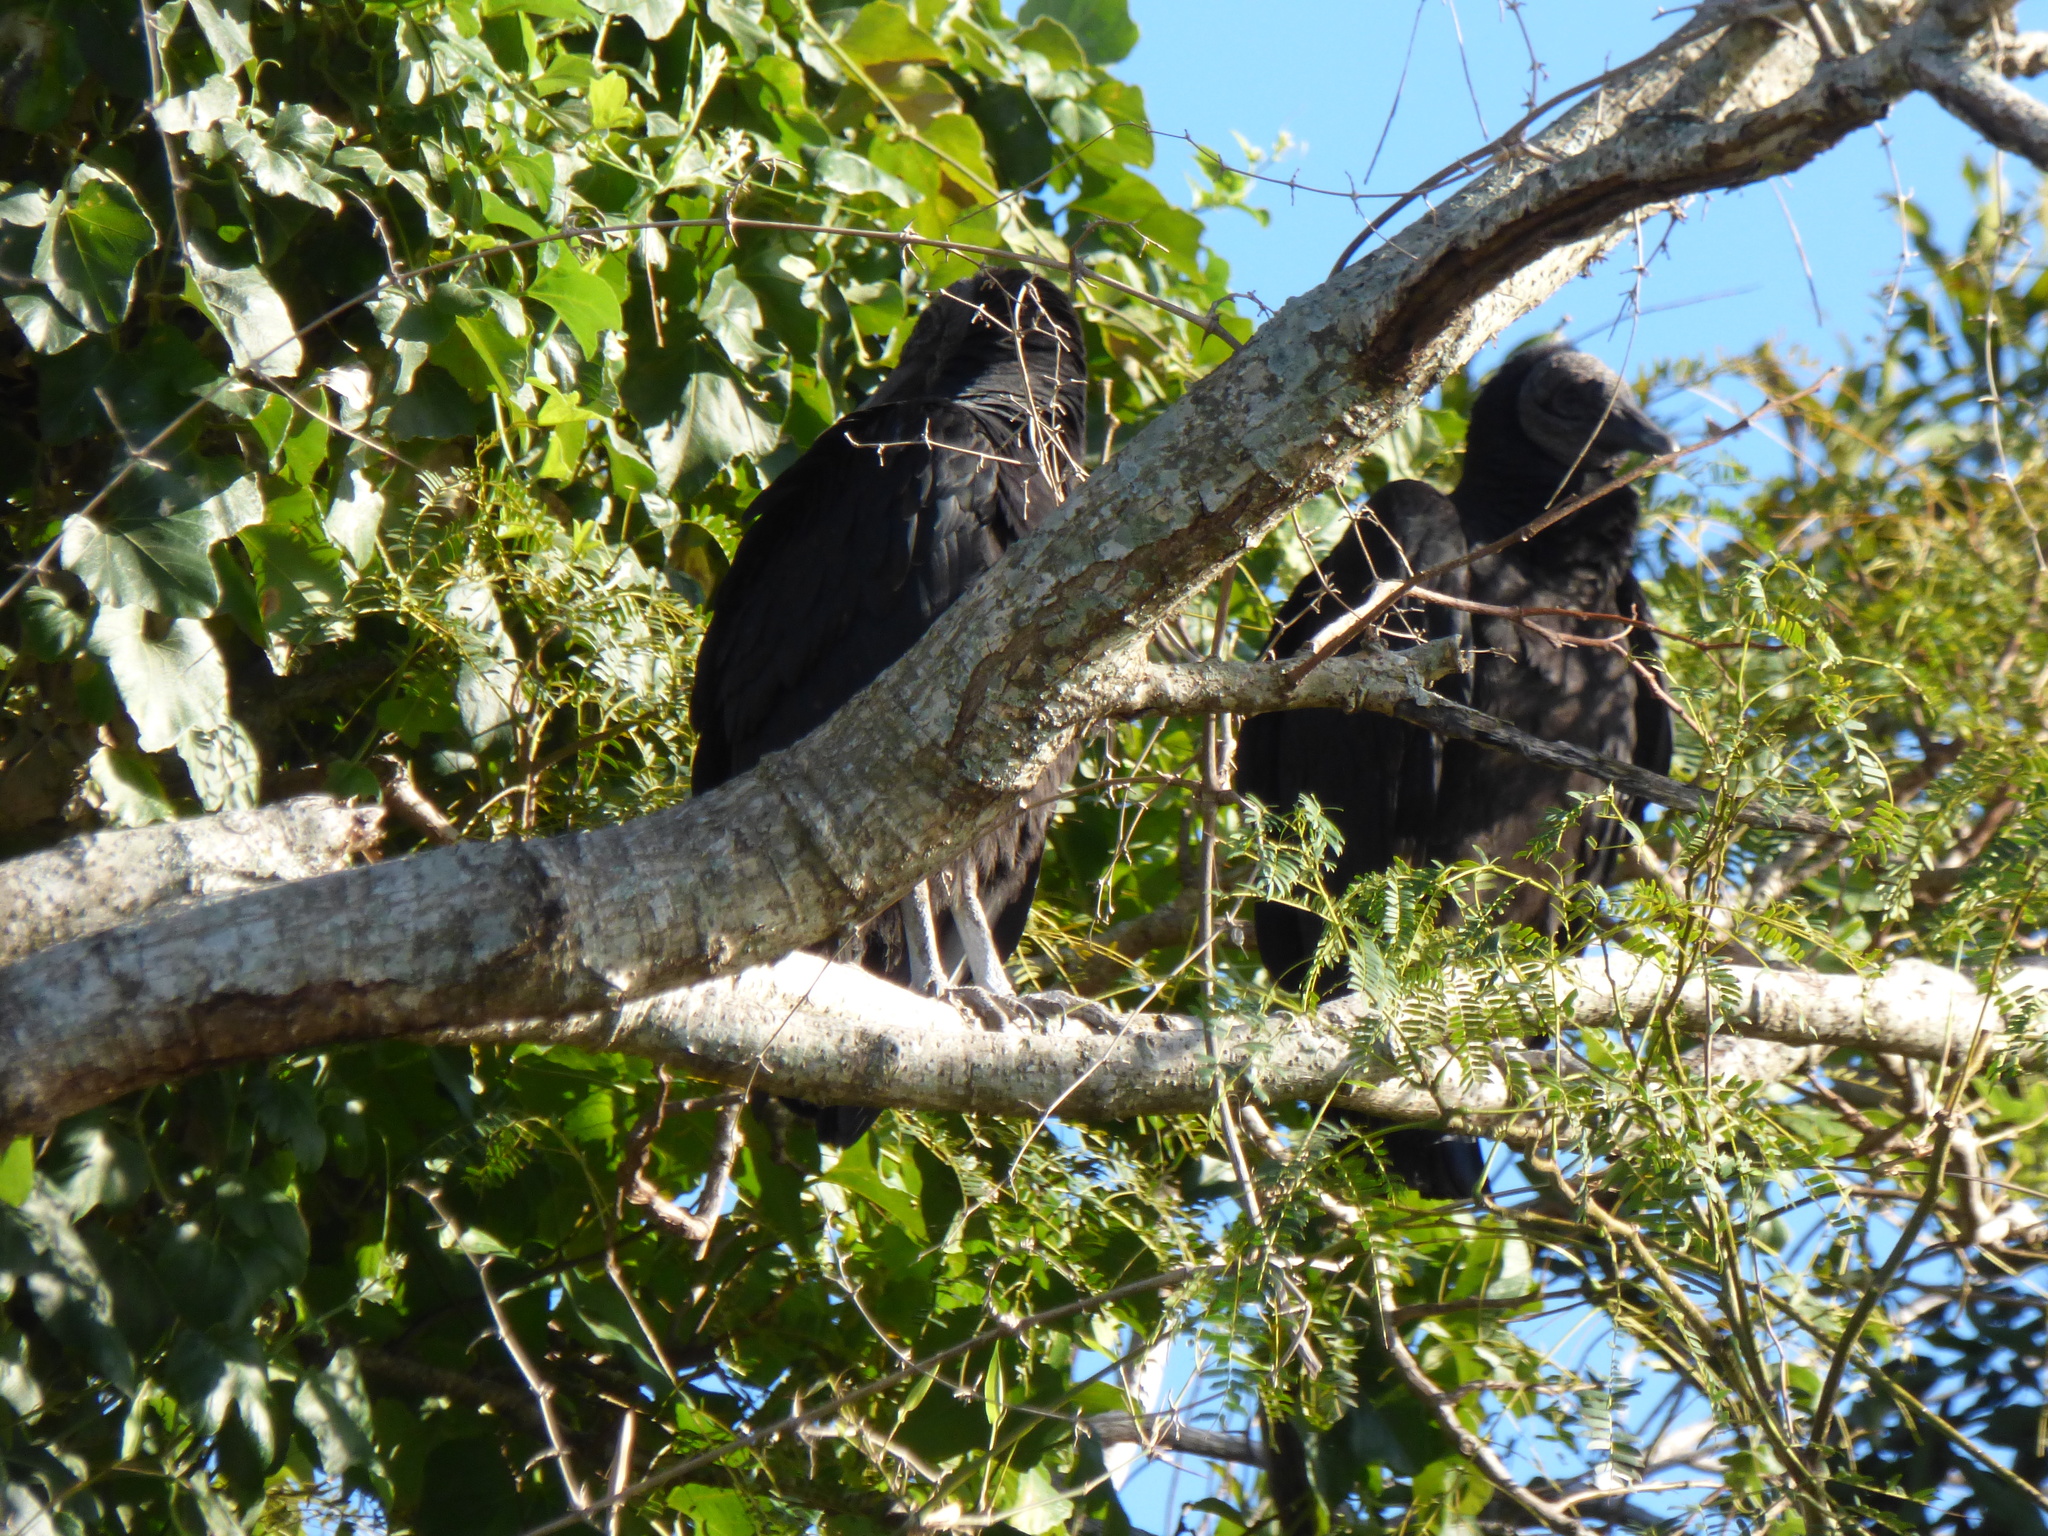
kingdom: Animalia
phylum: Chordata
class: Aves
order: Accipitriformes
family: Cathartidae
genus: Coragyps
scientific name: Coragyps atratus
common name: Black vulture
